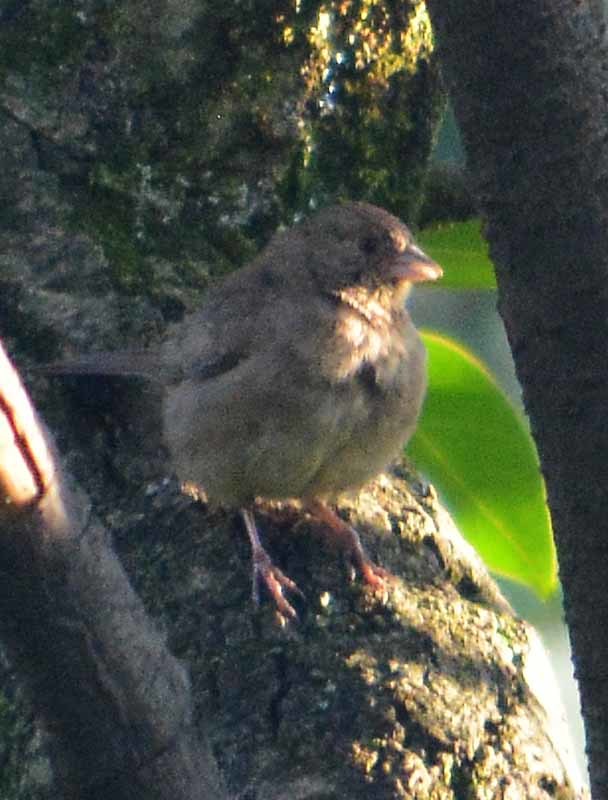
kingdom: Animalia
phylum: Chordata
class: Aves
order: Passeriformes
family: Passerellidae
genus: Melozone
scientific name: Melozone fusca
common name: Canyon towhee
